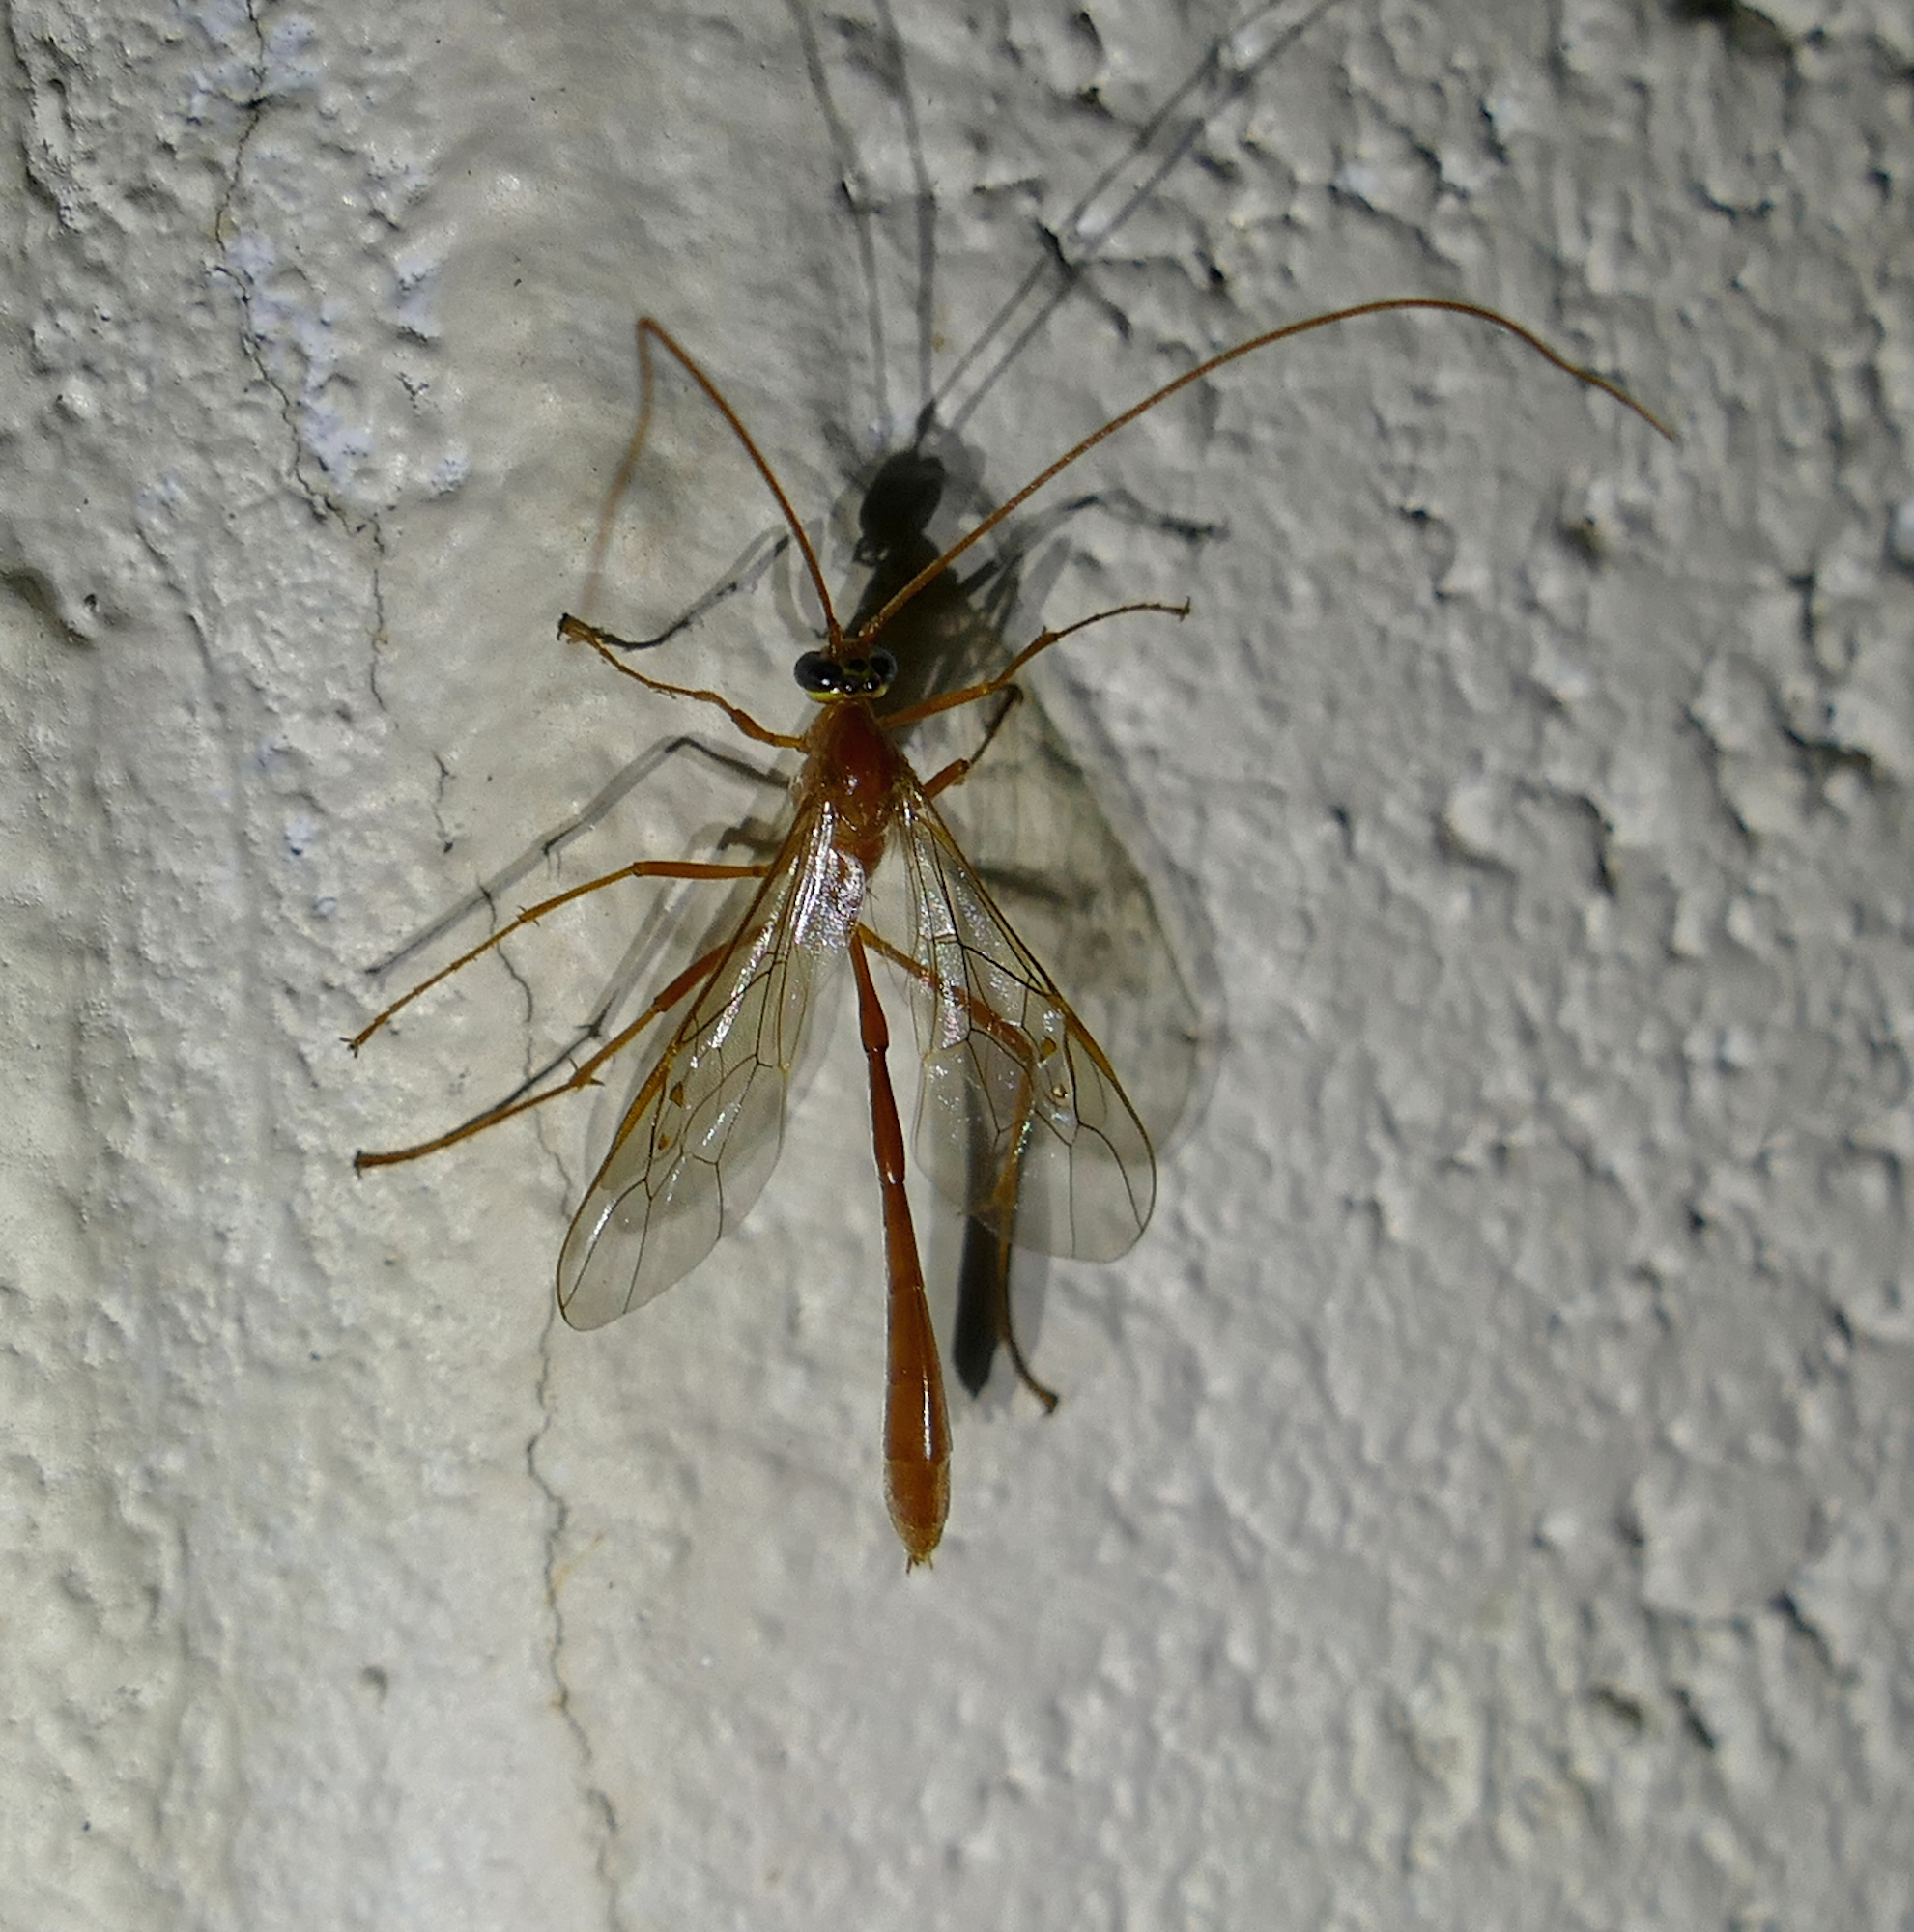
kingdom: Animalia
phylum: Arthropoda
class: Insecta
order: Hymenoptera
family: Ichneumonidae
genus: Enicospilus
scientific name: Enicospilus purgatus
